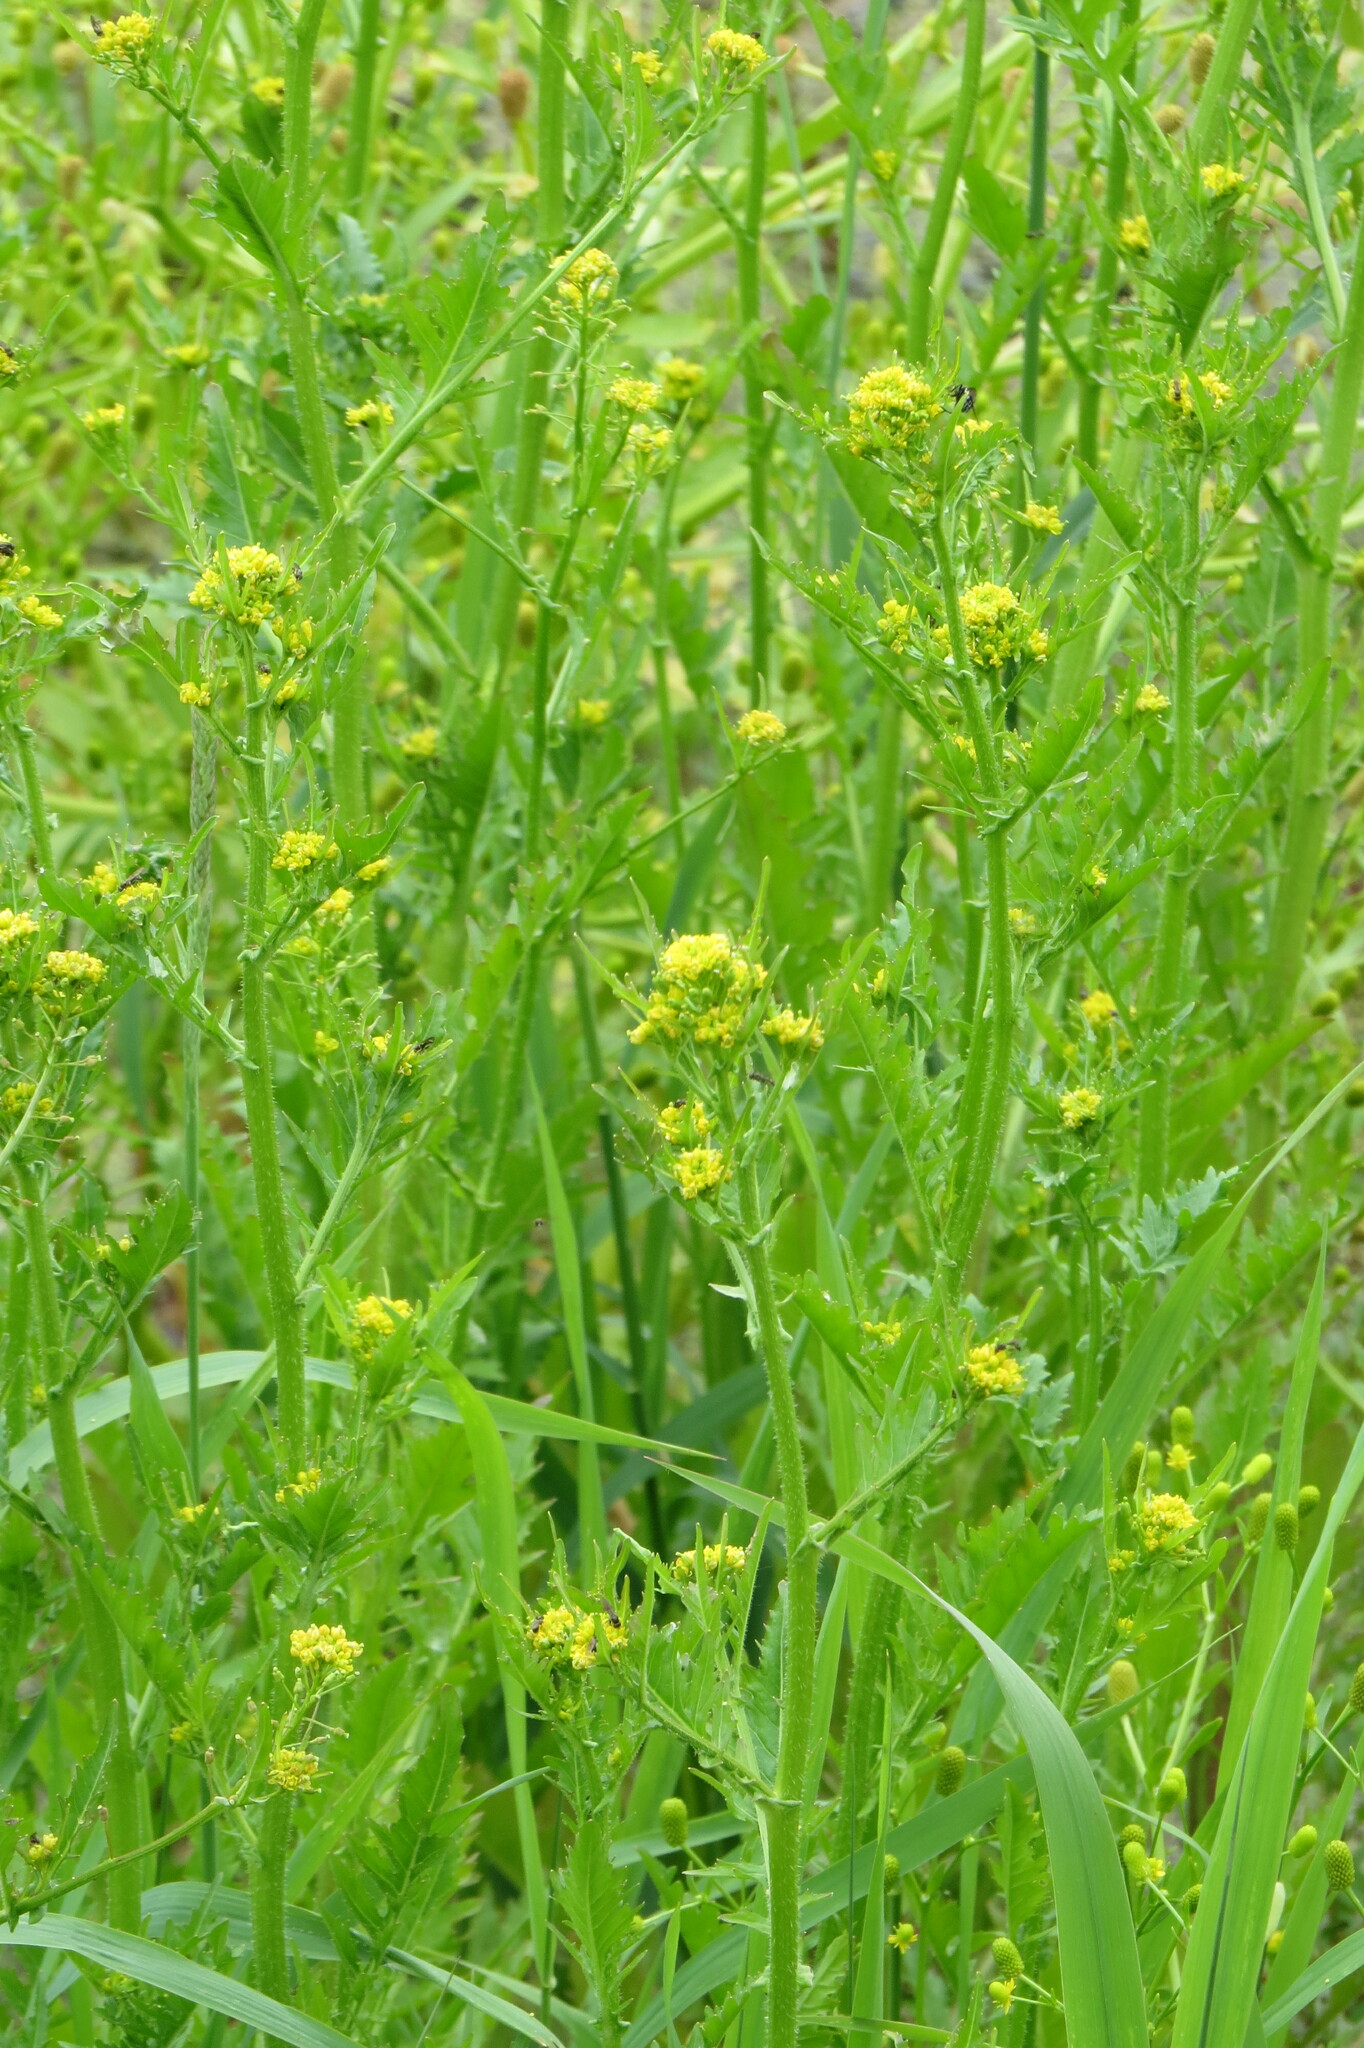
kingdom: Plantae
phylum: Tracheophyta
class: Magnoliopsida
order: Brassicales
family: Brassicaceae
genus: Rorippa
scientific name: Rorippa hispida
